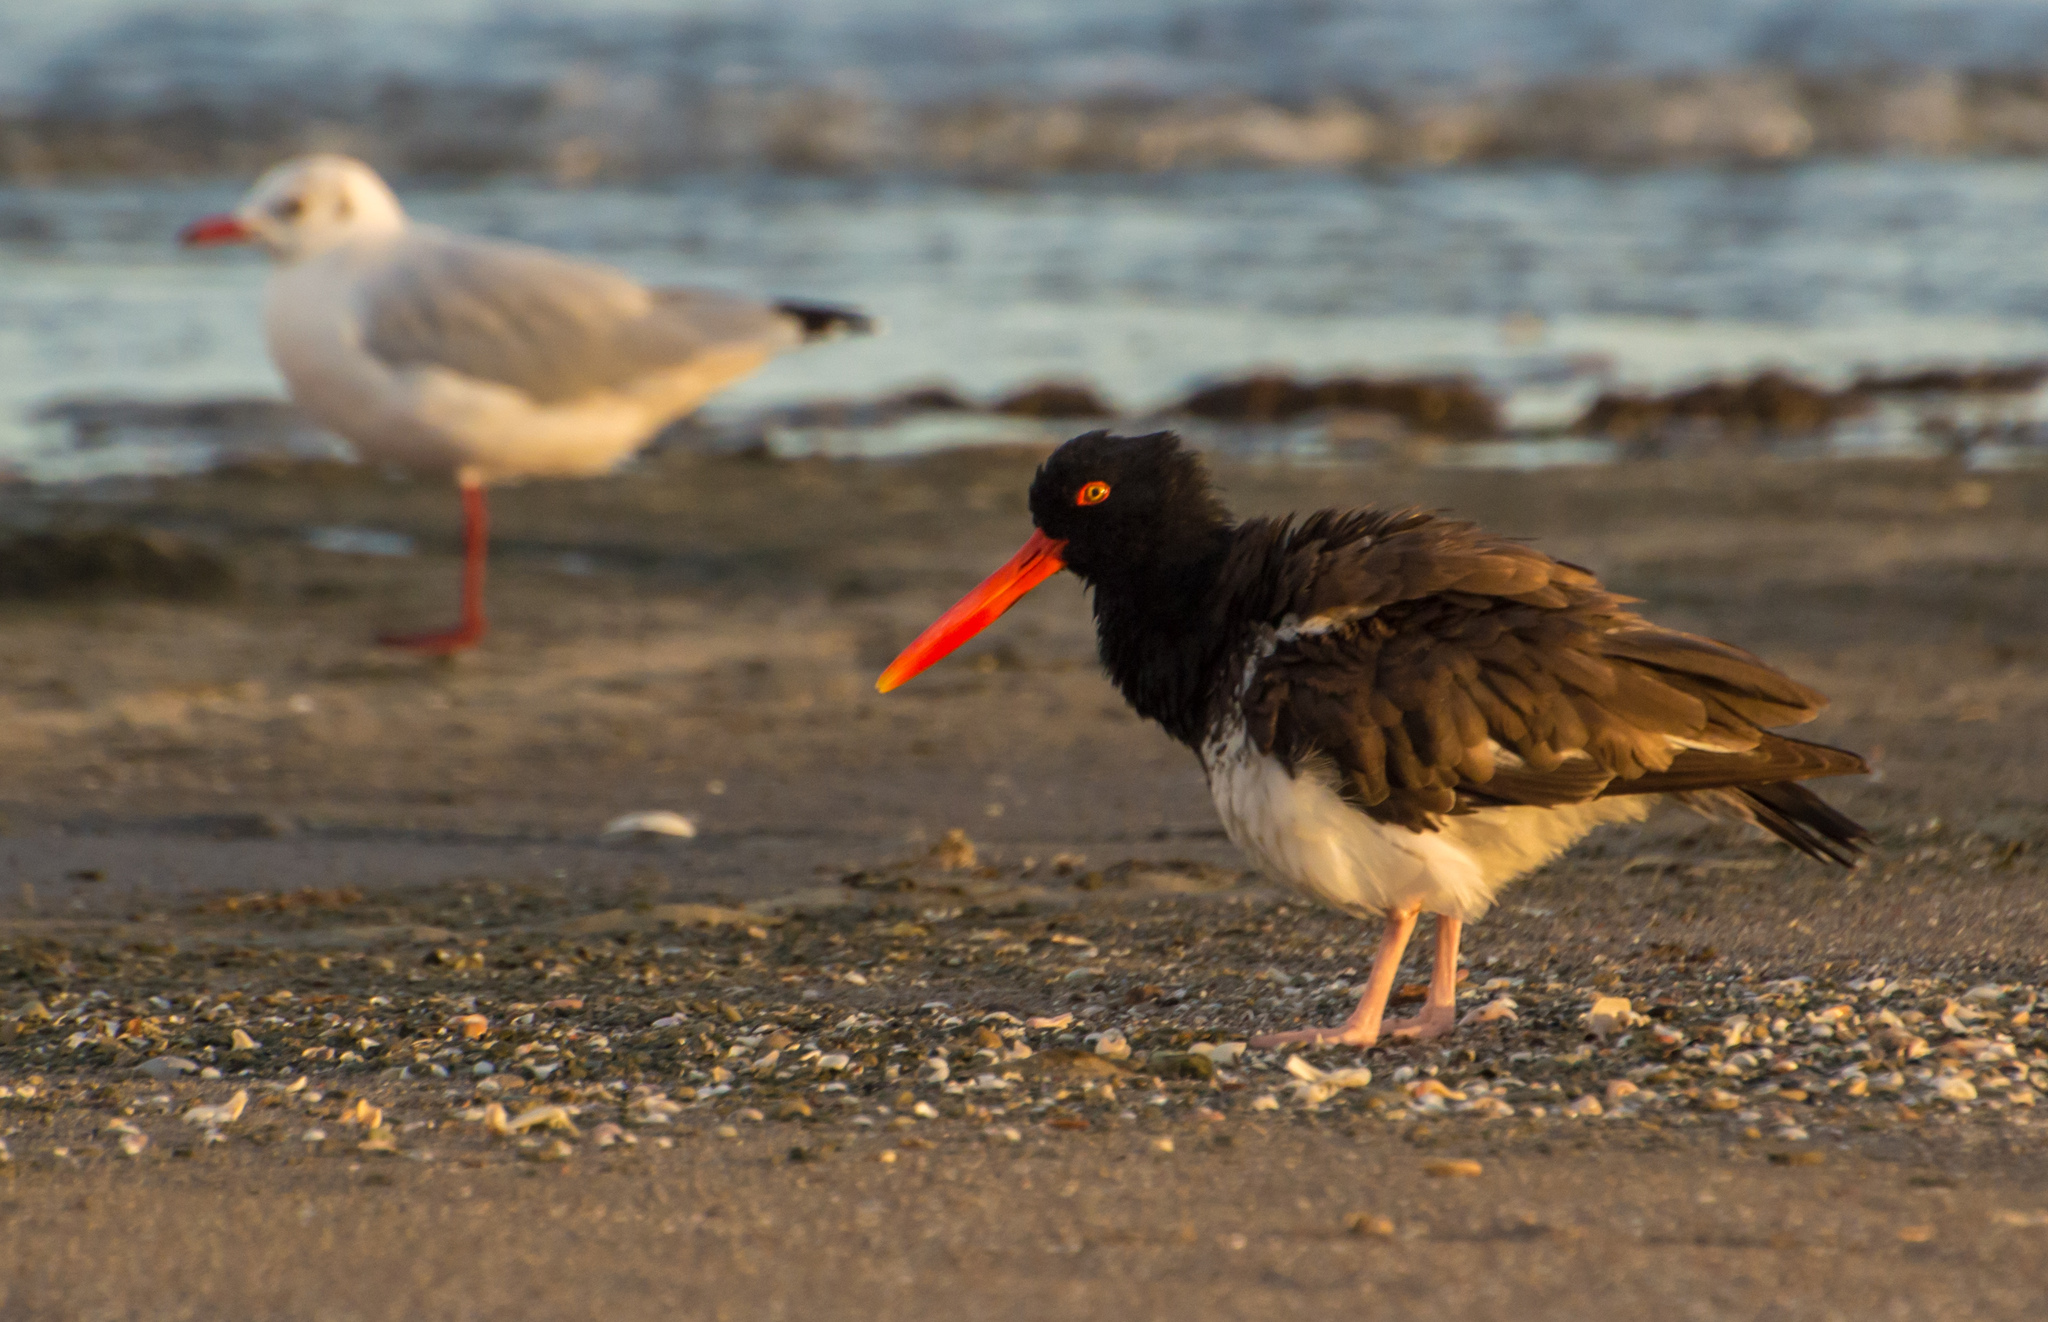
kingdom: Animalia
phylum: Chordata
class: Aves
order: Charadriiformes
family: Haematopodidae
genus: Haematopus
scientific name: Haematopus palliatus
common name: American oystercatcher
